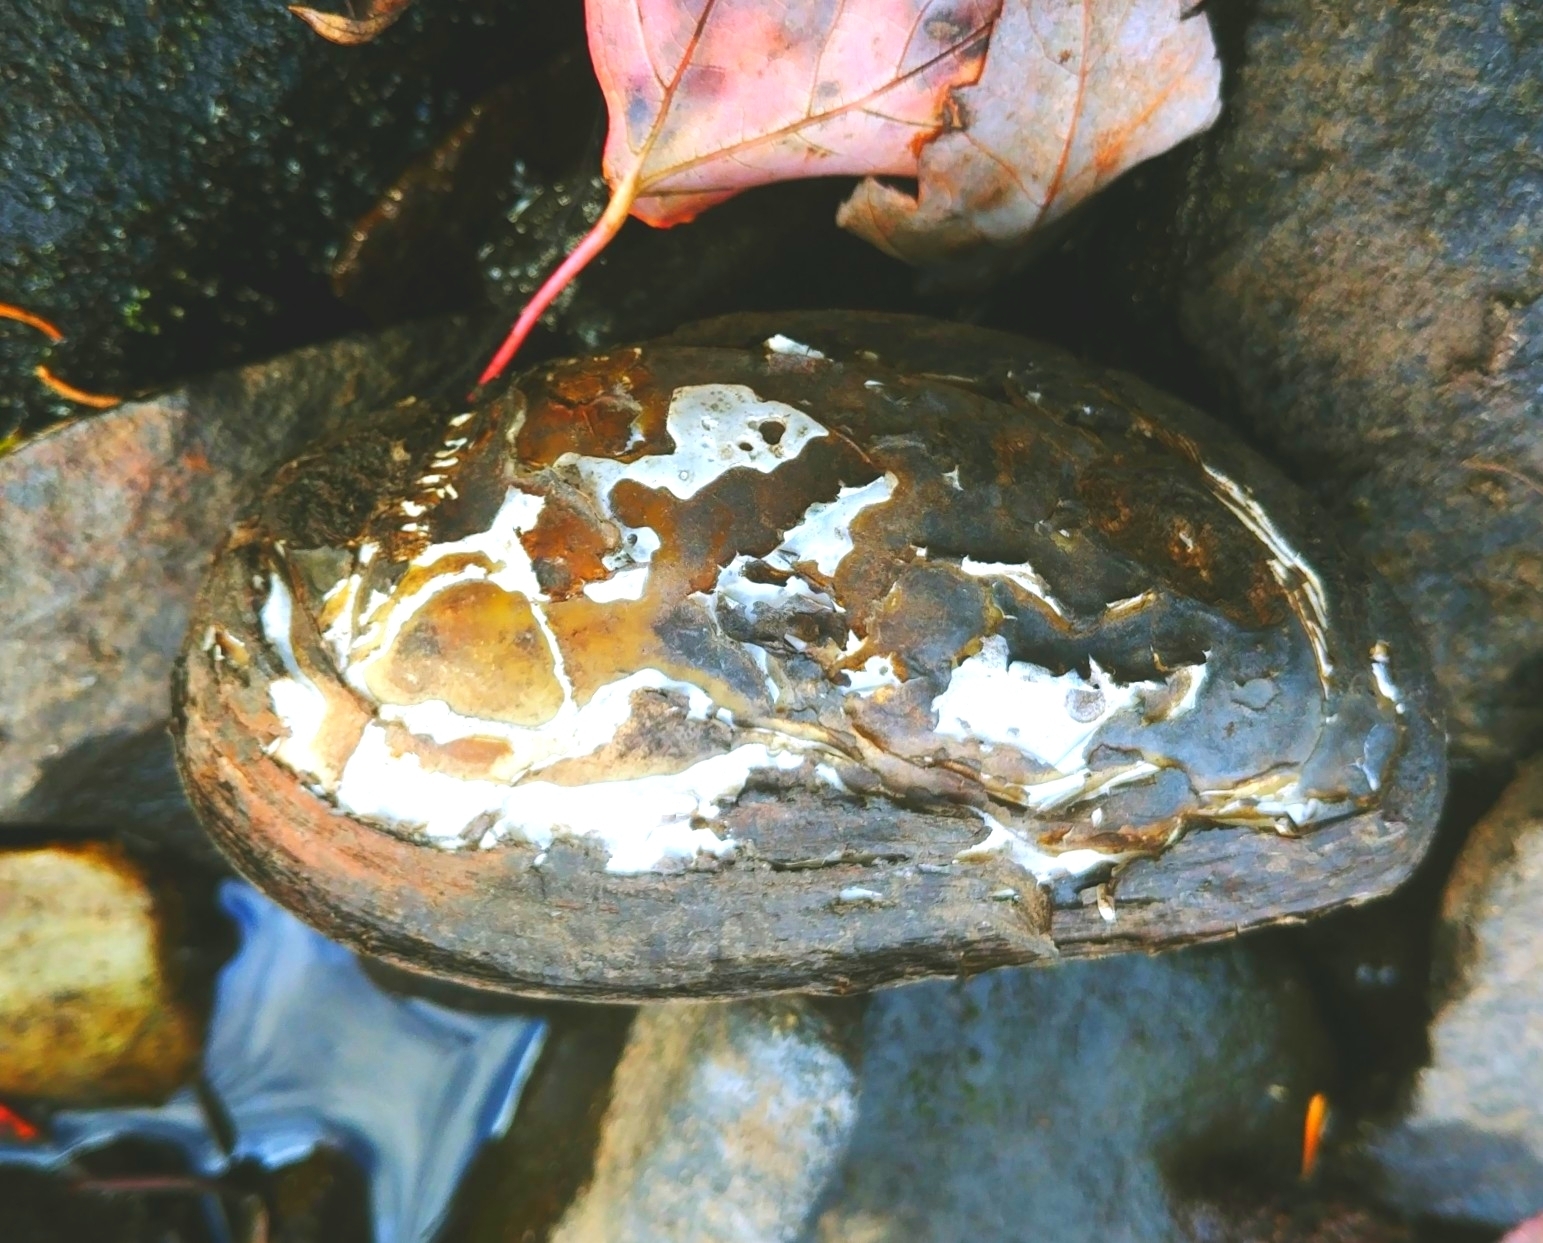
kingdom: Animalia
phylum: Mollusca
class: Bivalvia
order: Unionida
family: Unionidae
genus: Elliptio
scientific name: Elliptio complanata
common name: Eastern elliptio
